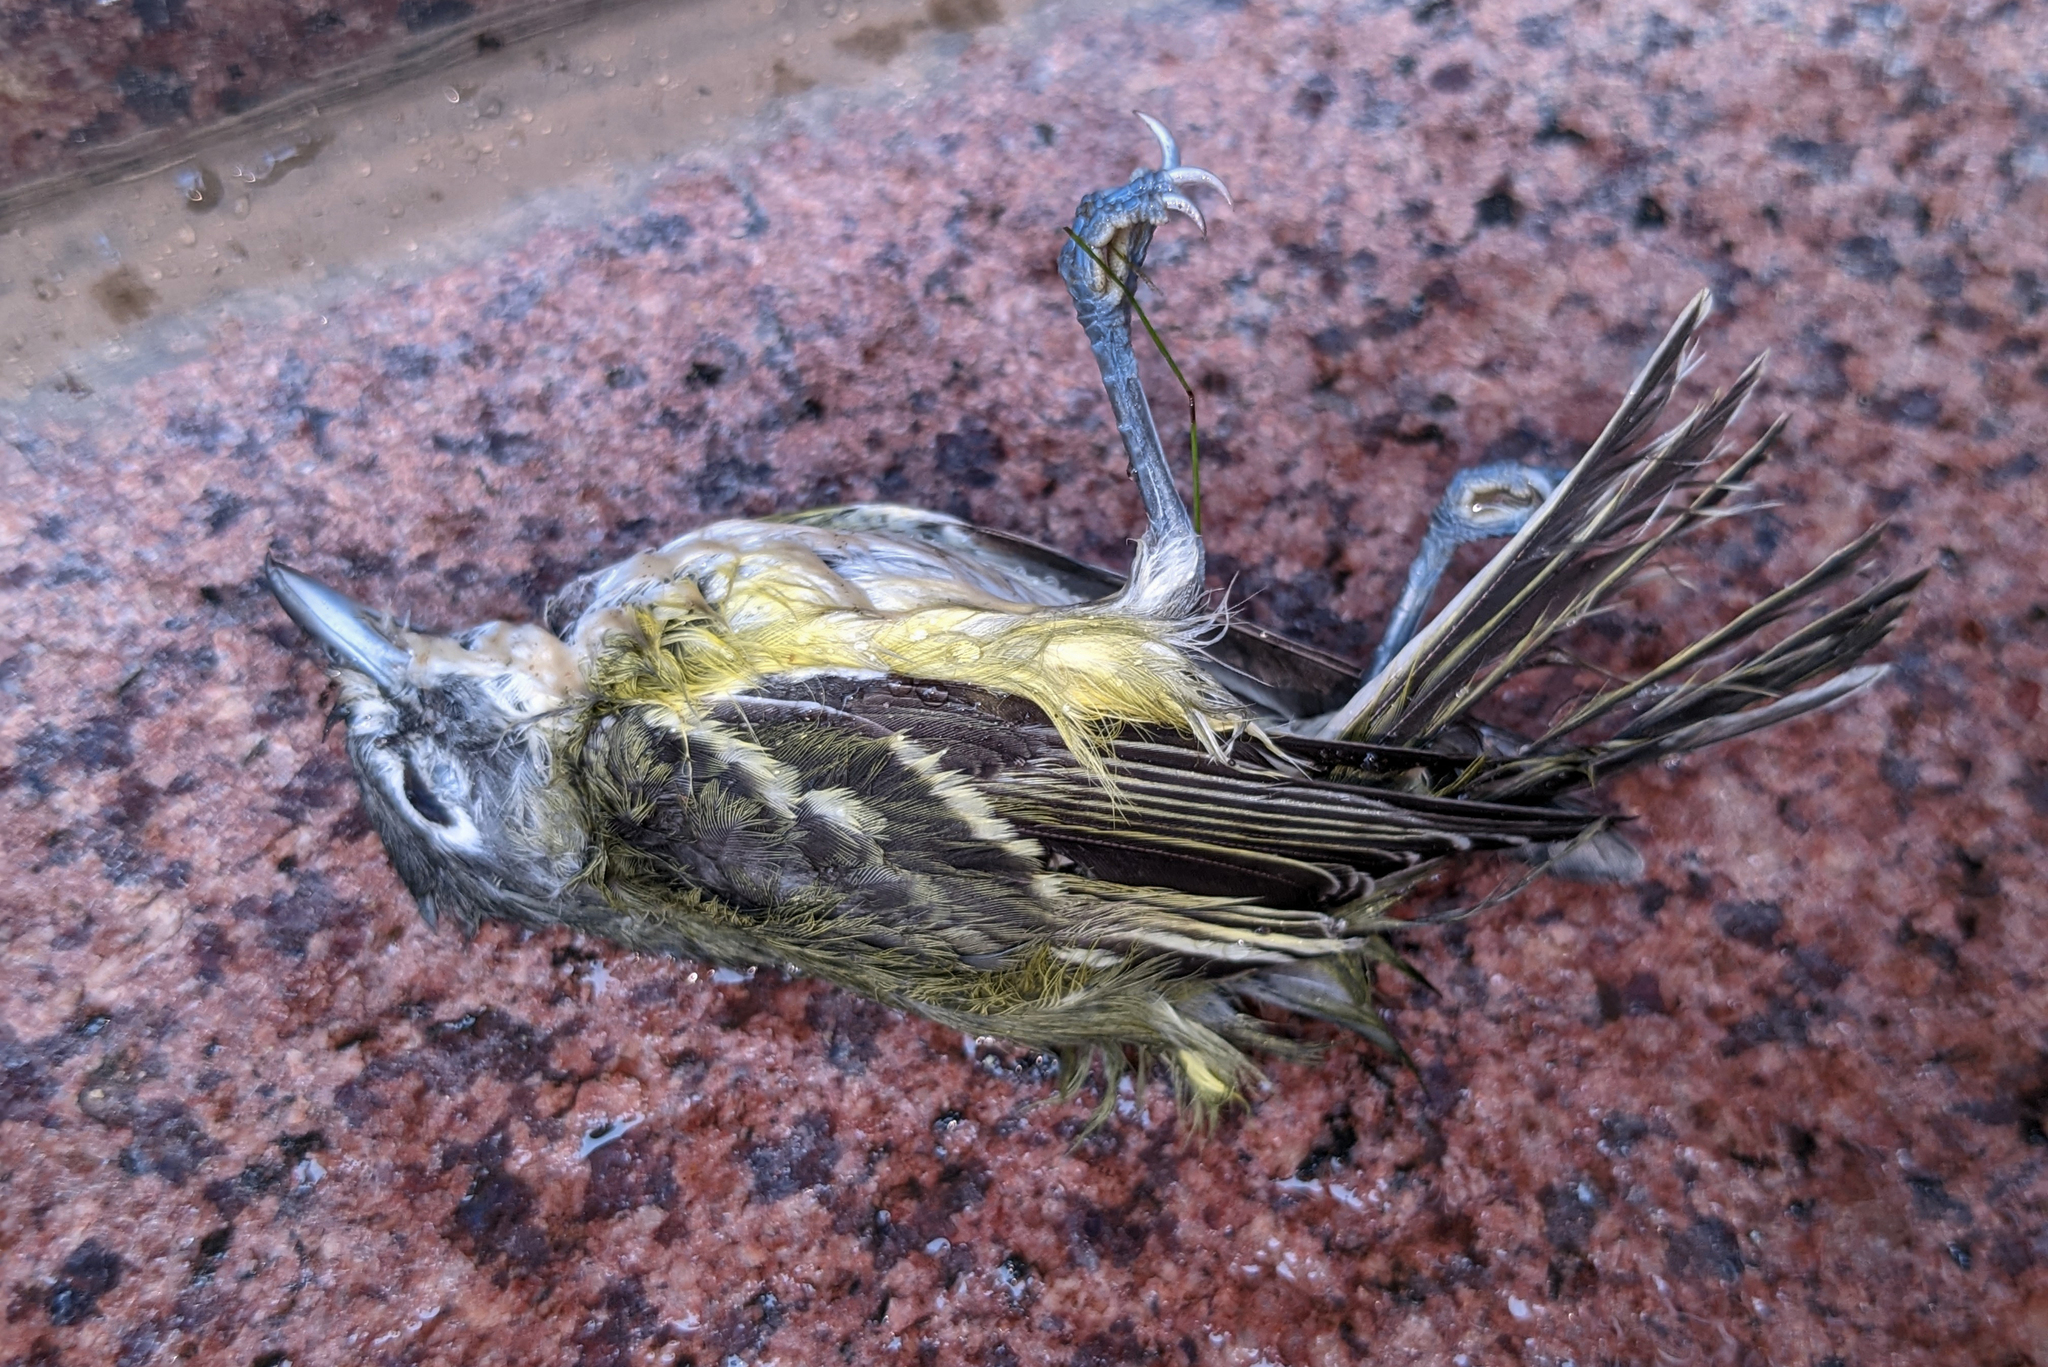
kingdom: Animalia
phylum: Chordata
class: Aves
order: Passeriformes
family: Vireonidae
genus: Vireo
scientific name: Vireo solitarius
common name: Blue-headed vireo
